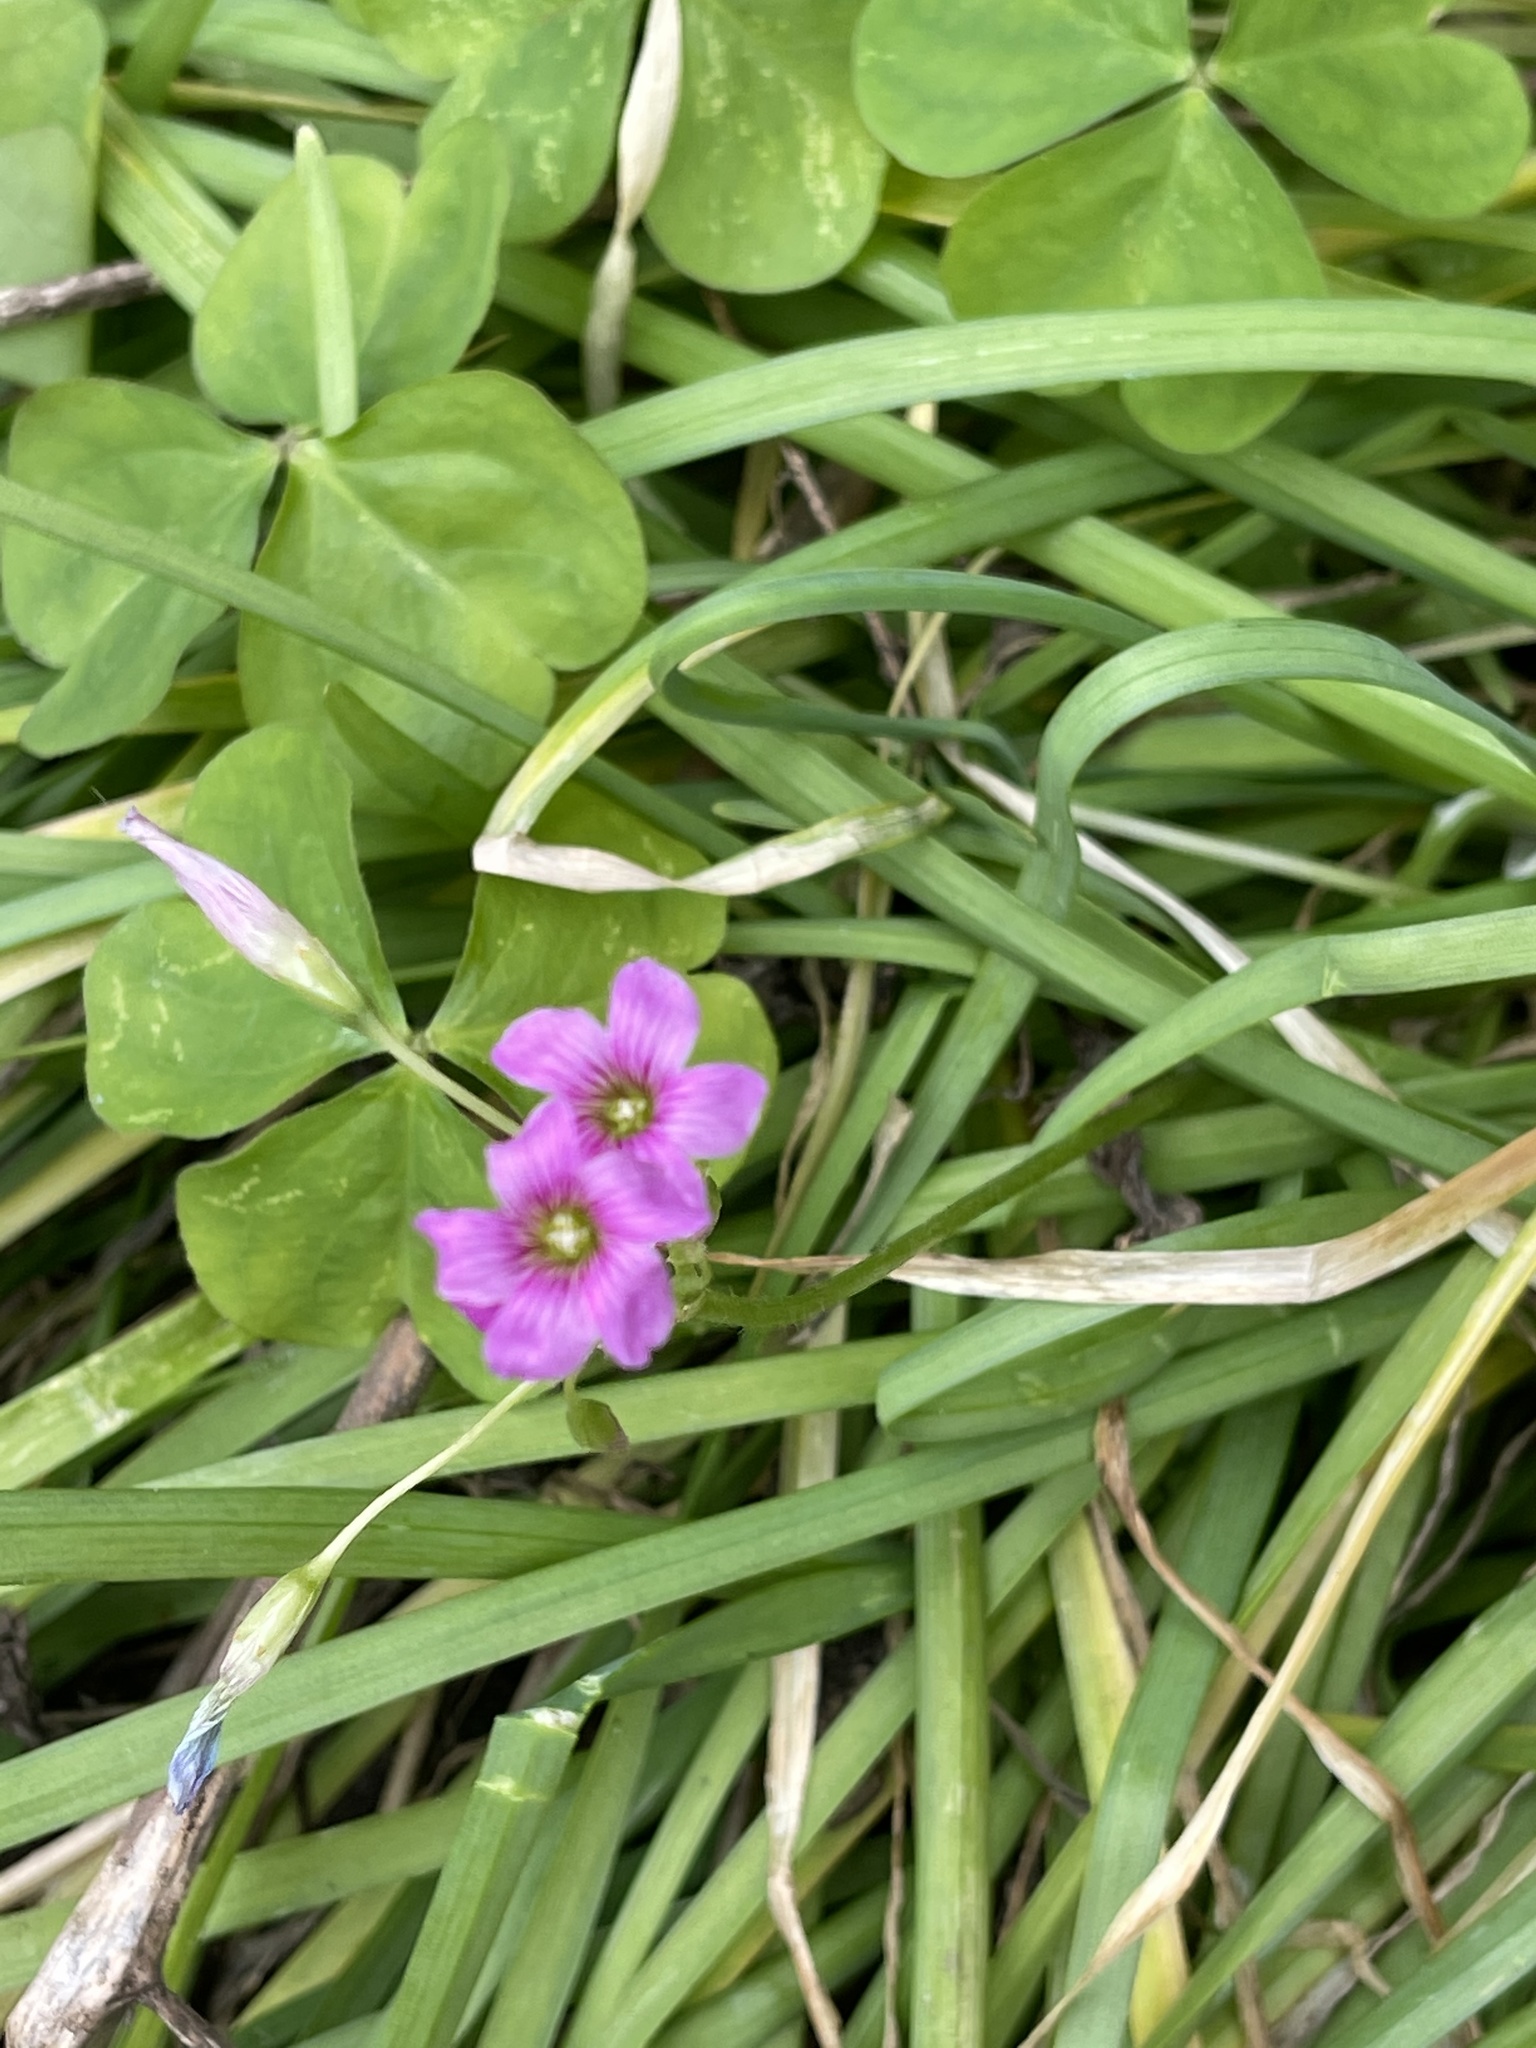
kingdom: Plantae
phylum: Tracheophyta
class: Magnoliopsida
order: Oxalidales
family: Oxalidaceae
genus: Oxalis
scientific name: Oxalis debilis
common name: Large-flowered pink-sorrel
